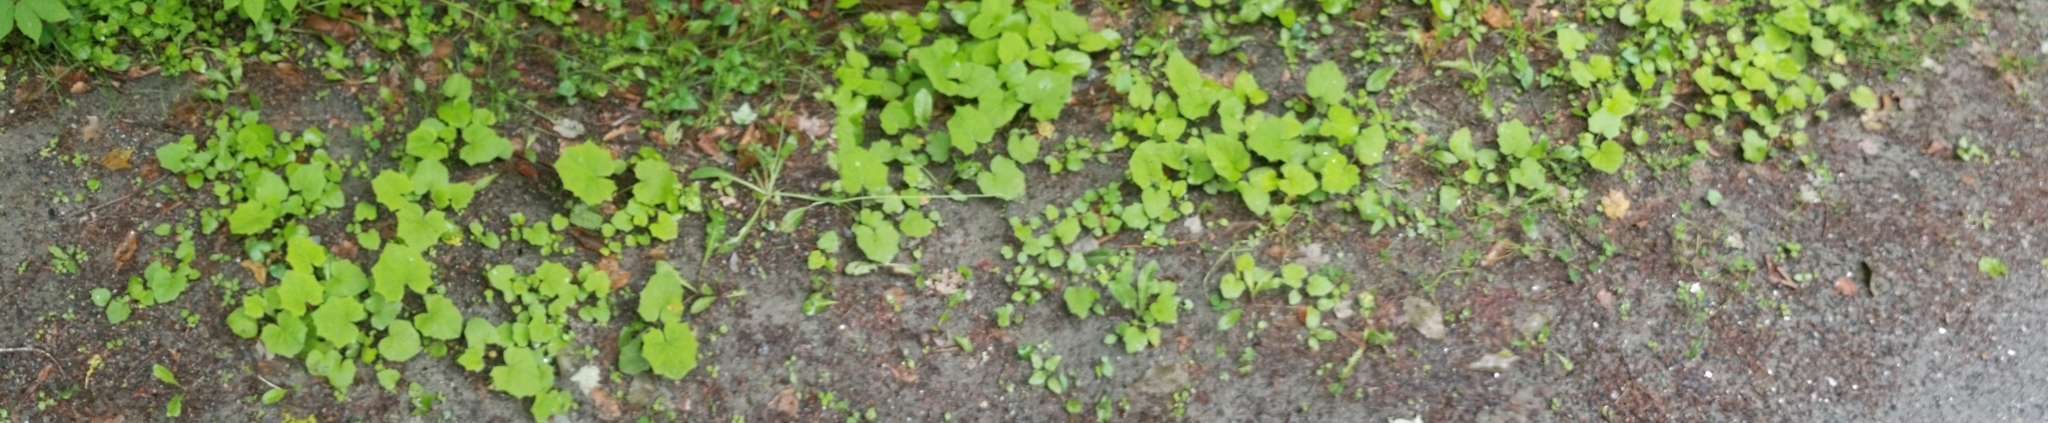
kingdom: Plantae
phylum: Tracheophyta
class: Magnoliopsida
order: Asterales
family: Asteraceae
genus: Tussilago
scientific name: Tussilago farfara
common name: Coltsfoot
